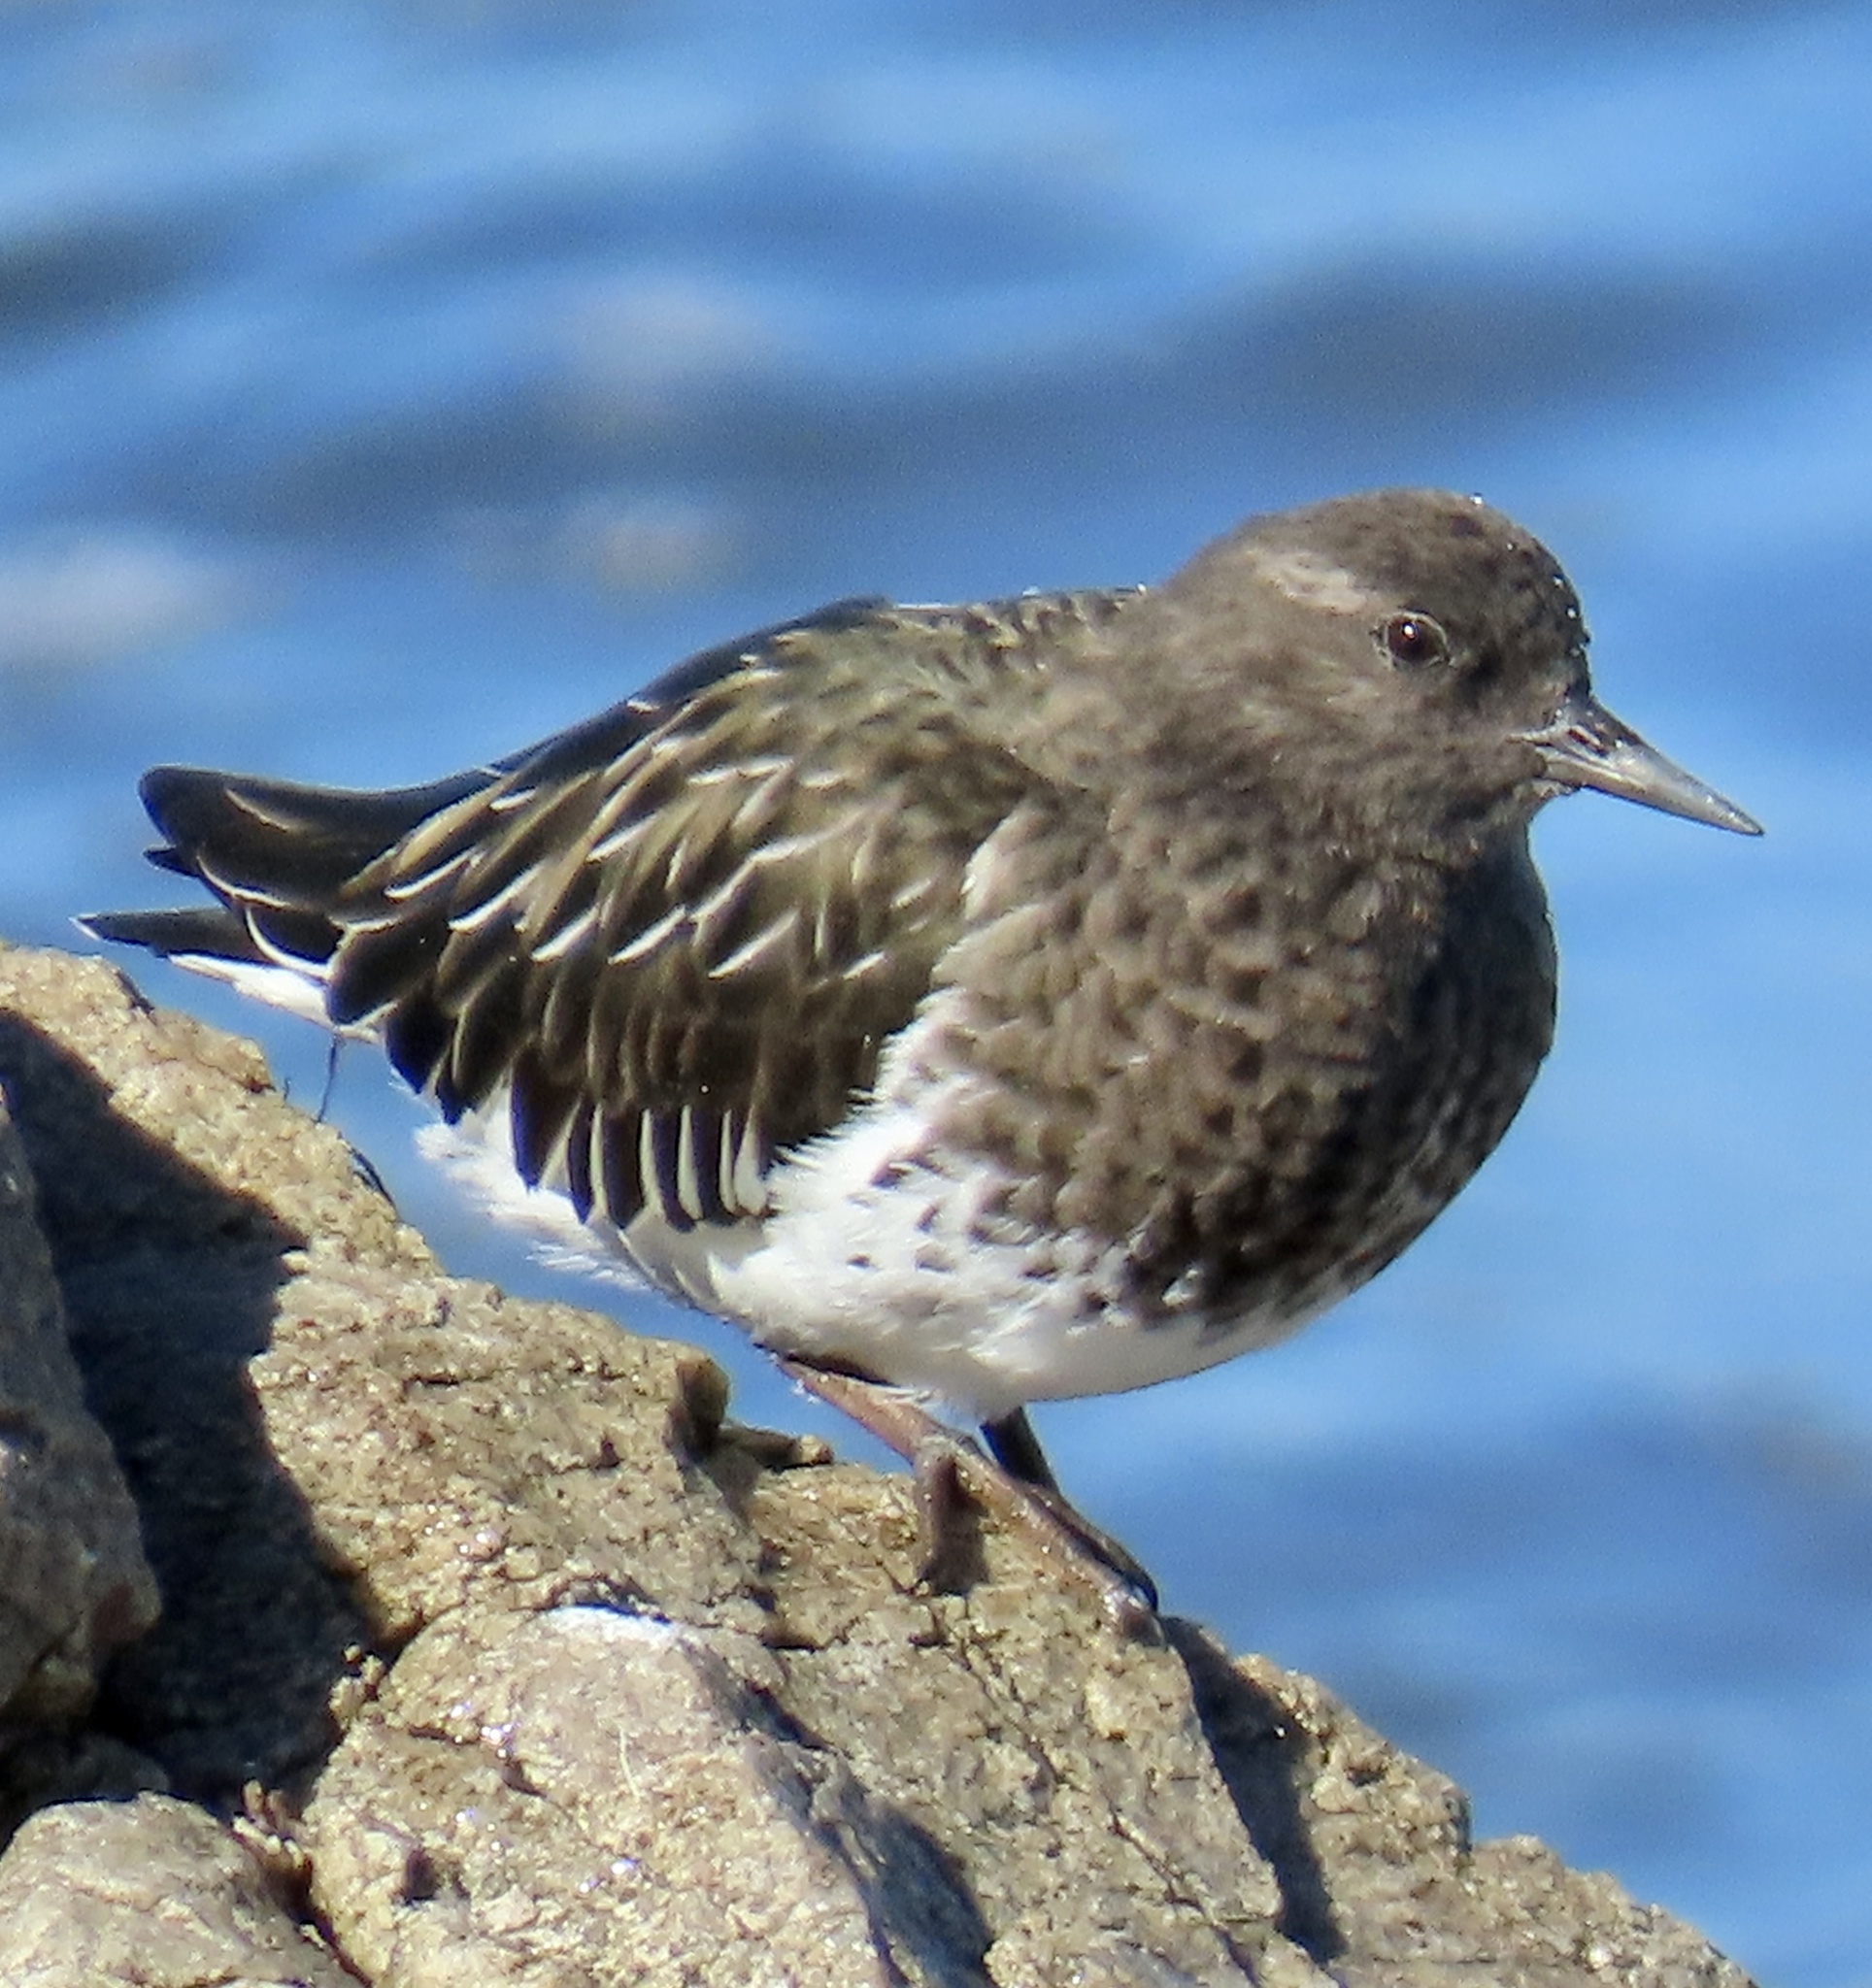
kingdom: Animalia
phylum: Chordata
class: Aves
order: Charadriiformes
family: Scolopacidae
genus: Arenaria
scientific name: Arenaria melanocephala
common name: Black turnstone
